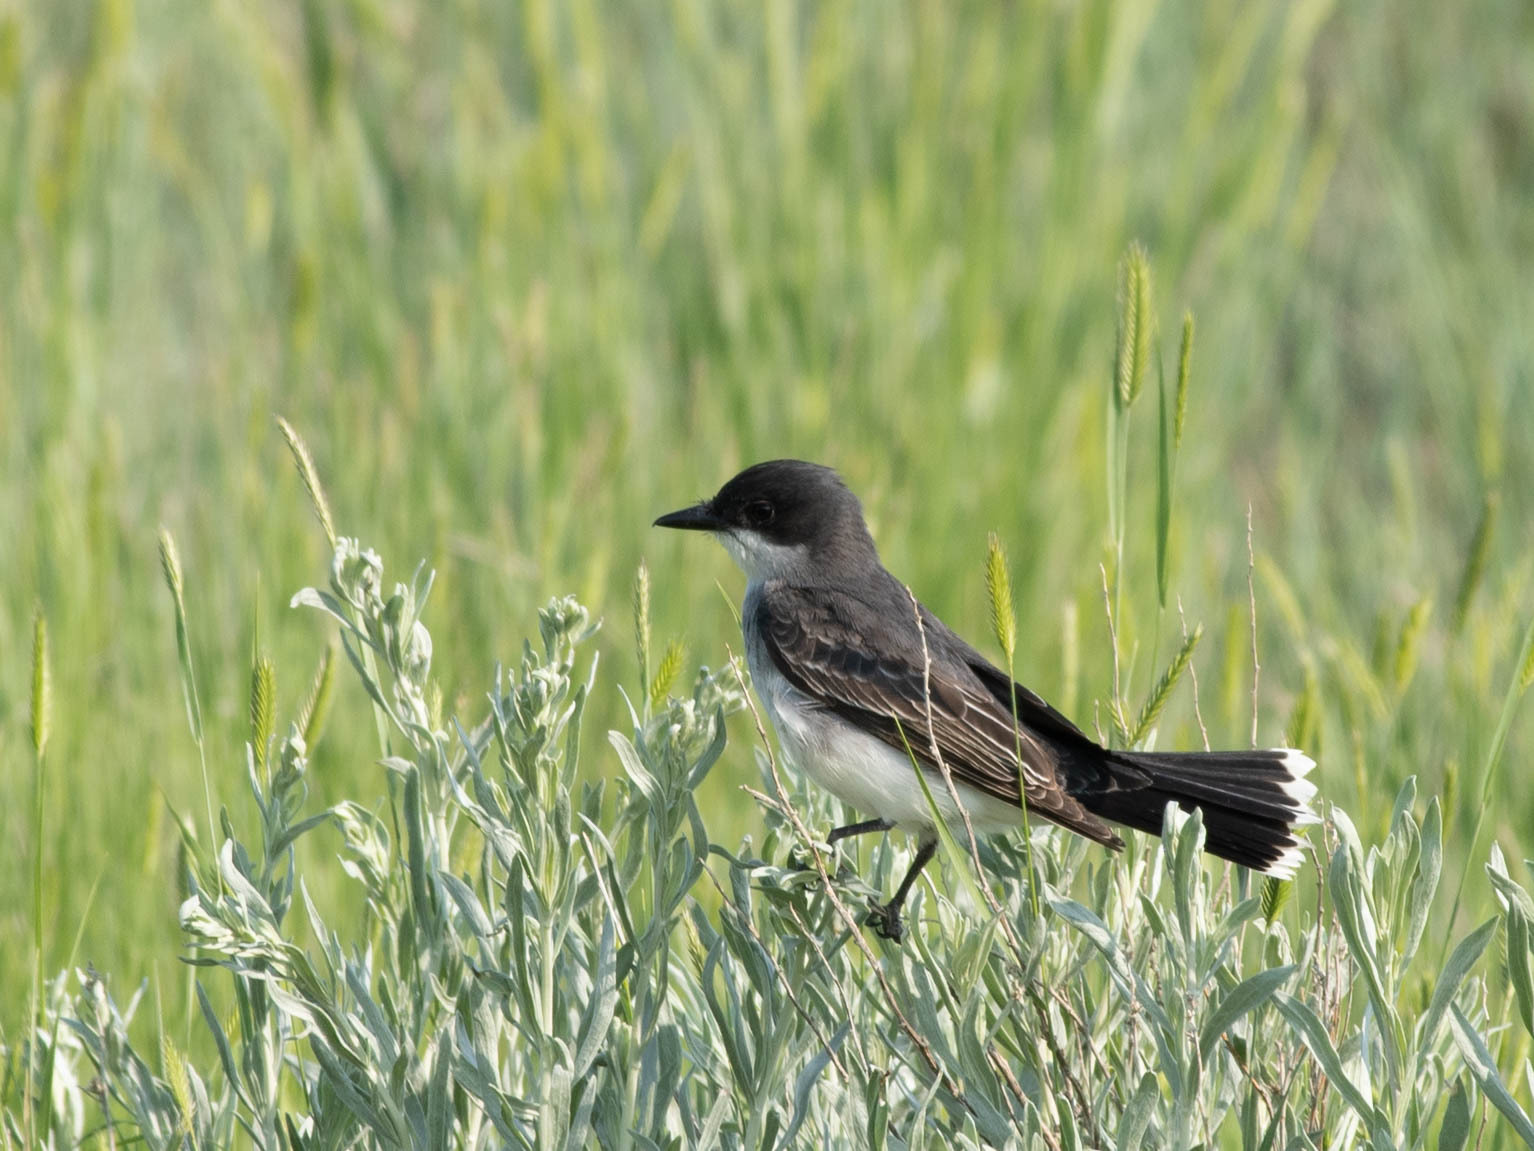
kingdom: Animalia
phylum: Chordata
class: Aves
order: Passeriformes
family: Tyrannidae
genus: Tyrannus
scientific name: Tyrannus tyrannus
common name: Eastern kingbird
